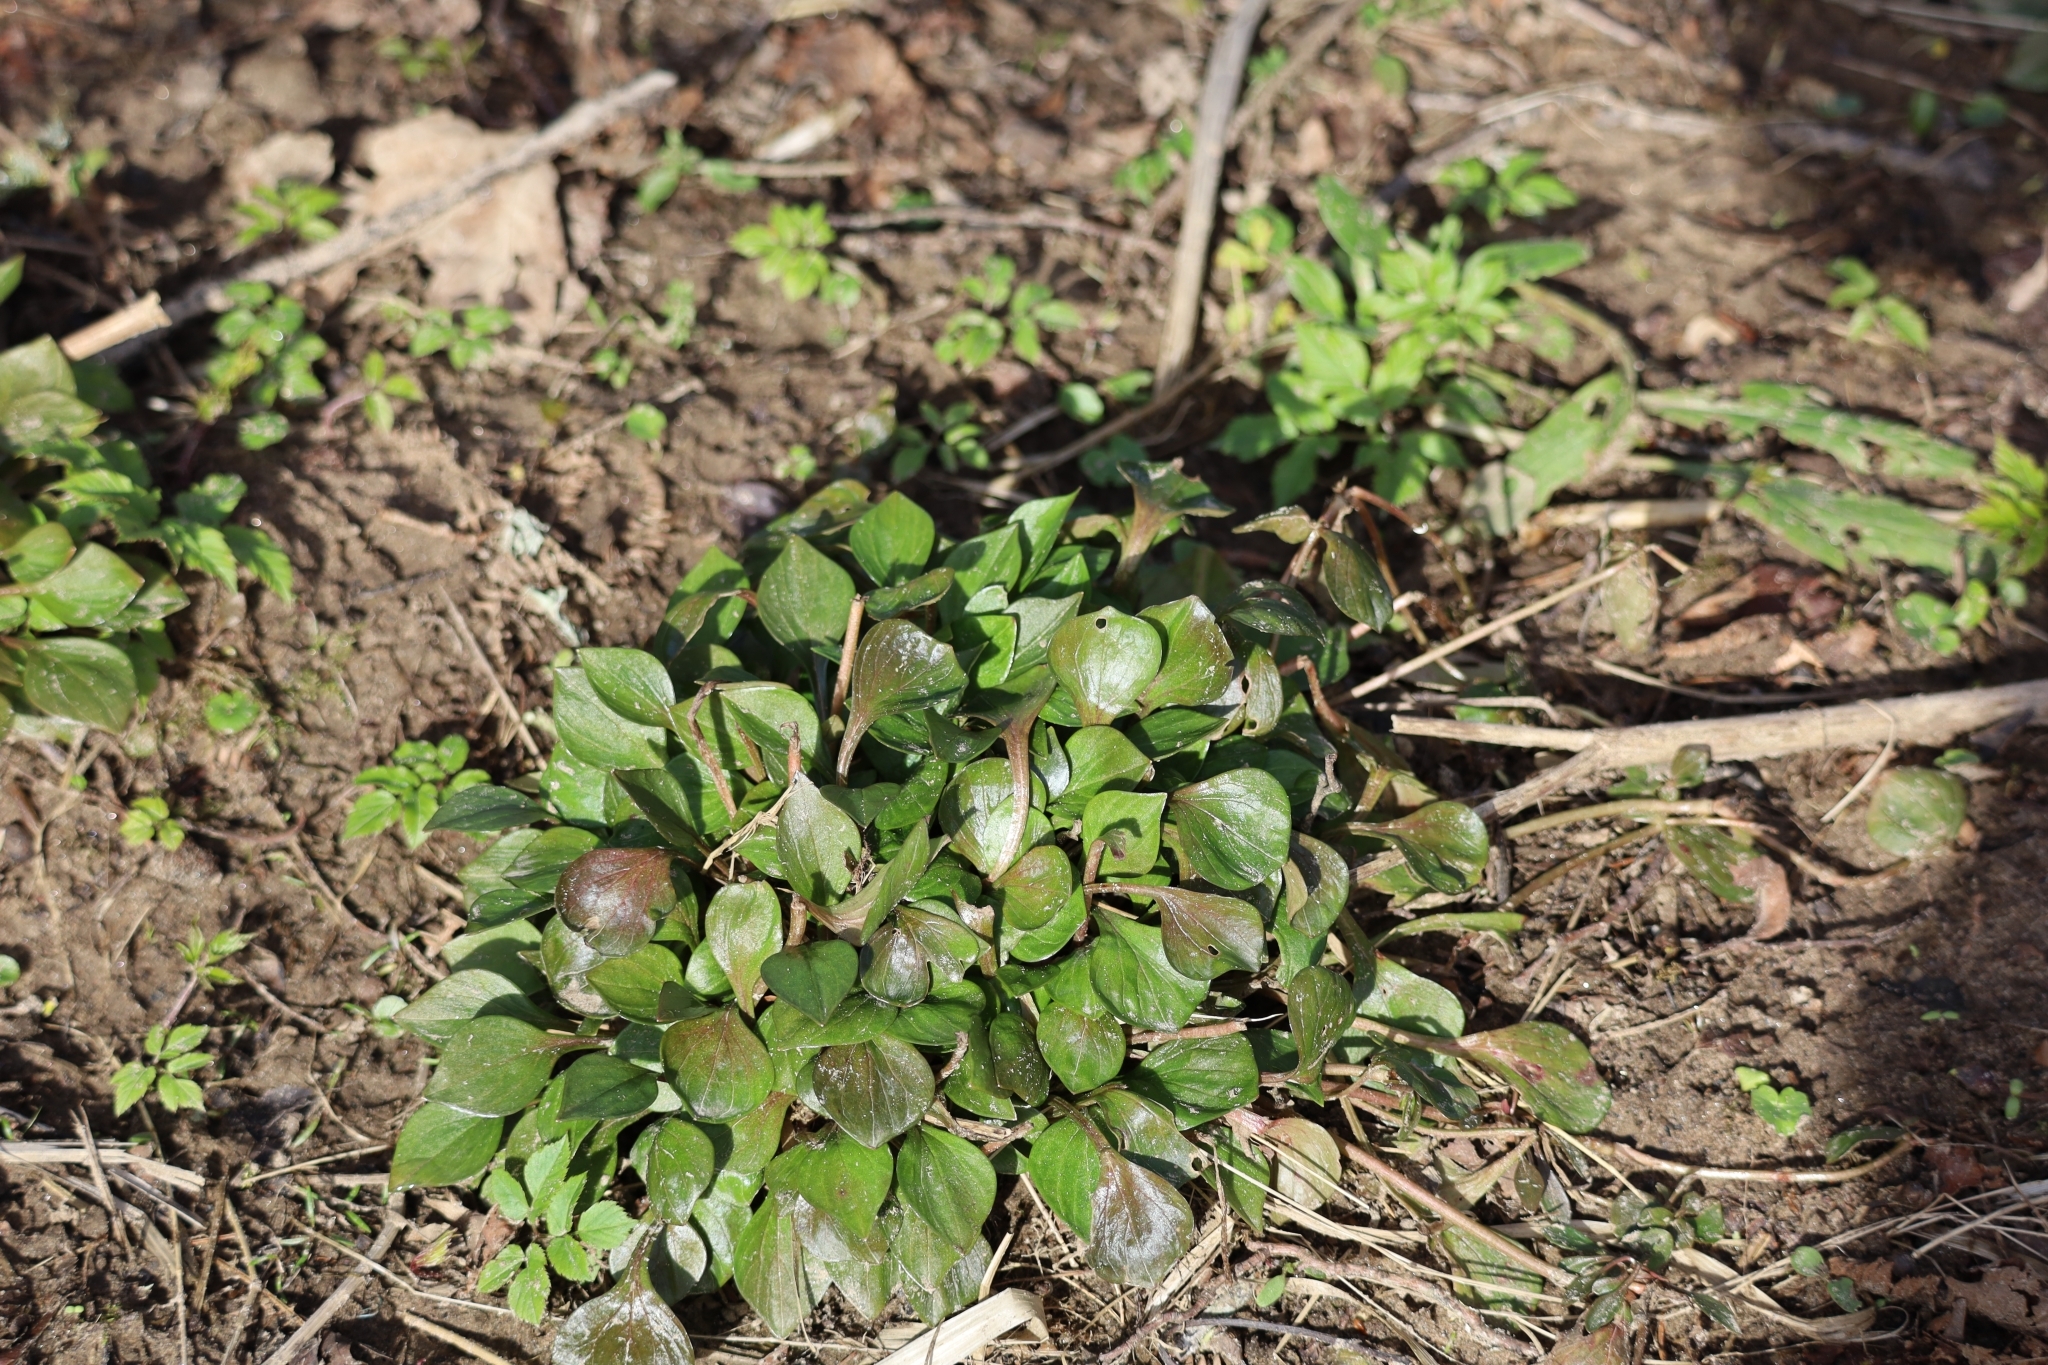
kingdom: Plantae
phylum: Tracheophyta
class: Magnoliopsida
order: Caryophyllales
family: Montiaceae
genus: Claytonia
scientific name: Claytonia sibirica
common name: Pink purslane
